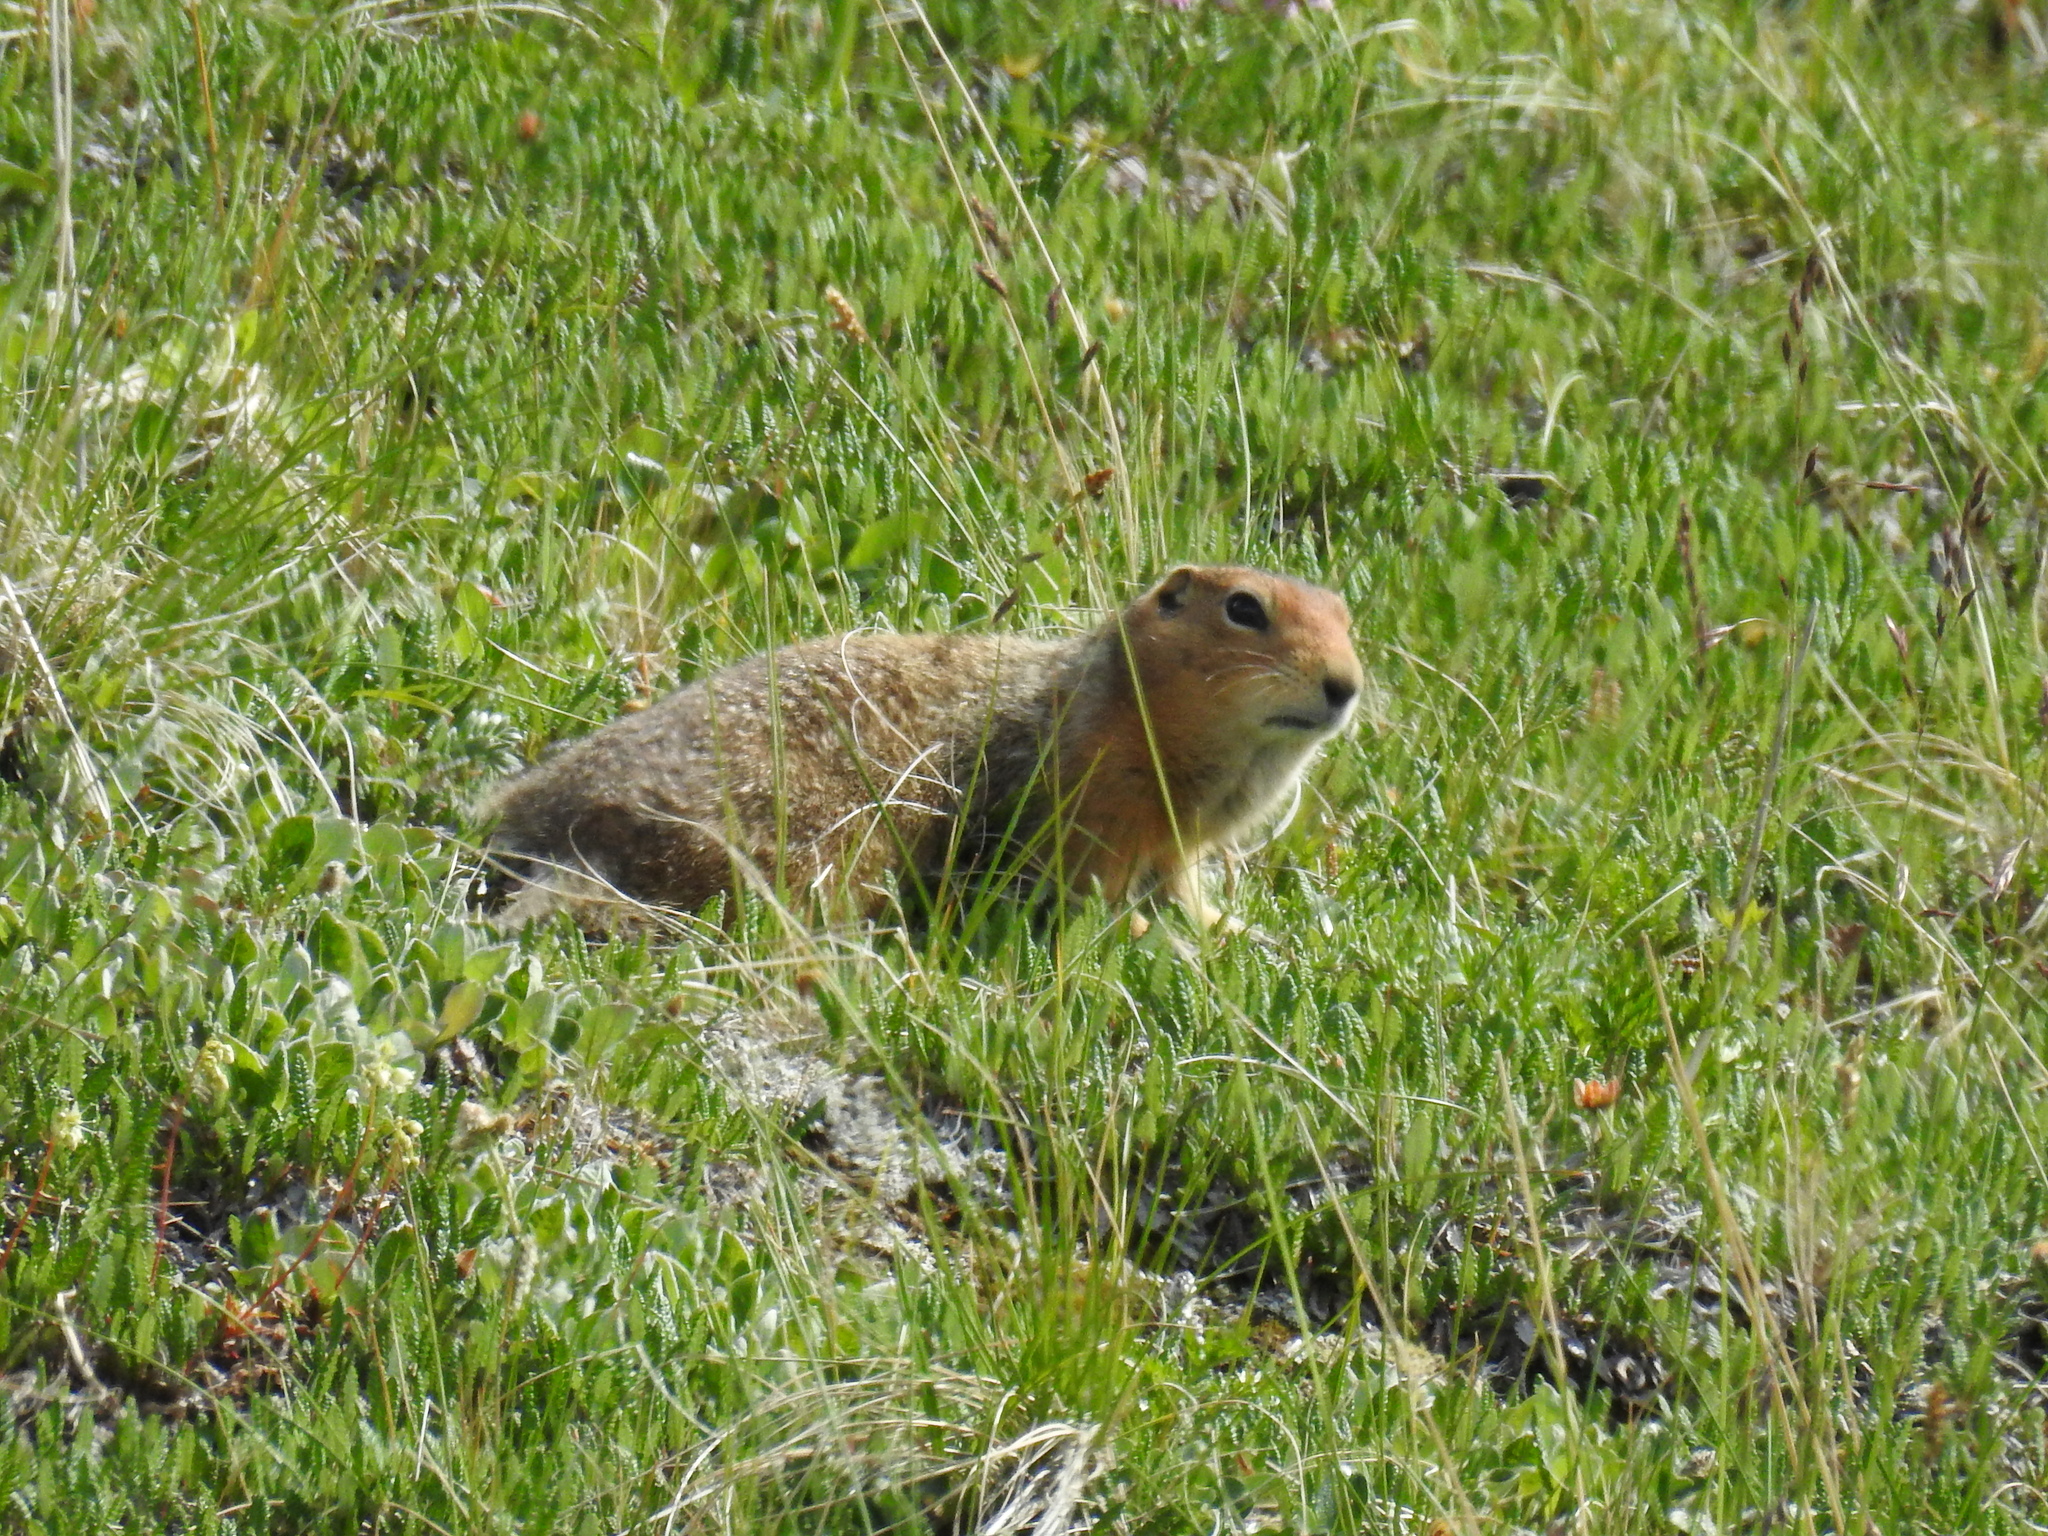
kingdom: Animalia
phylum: Chordata
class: Mammalia
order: Rodentia
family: Sciuridae
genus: Urocitellus
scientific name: Urocitellus parryii
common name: Arctic ground squirrel
